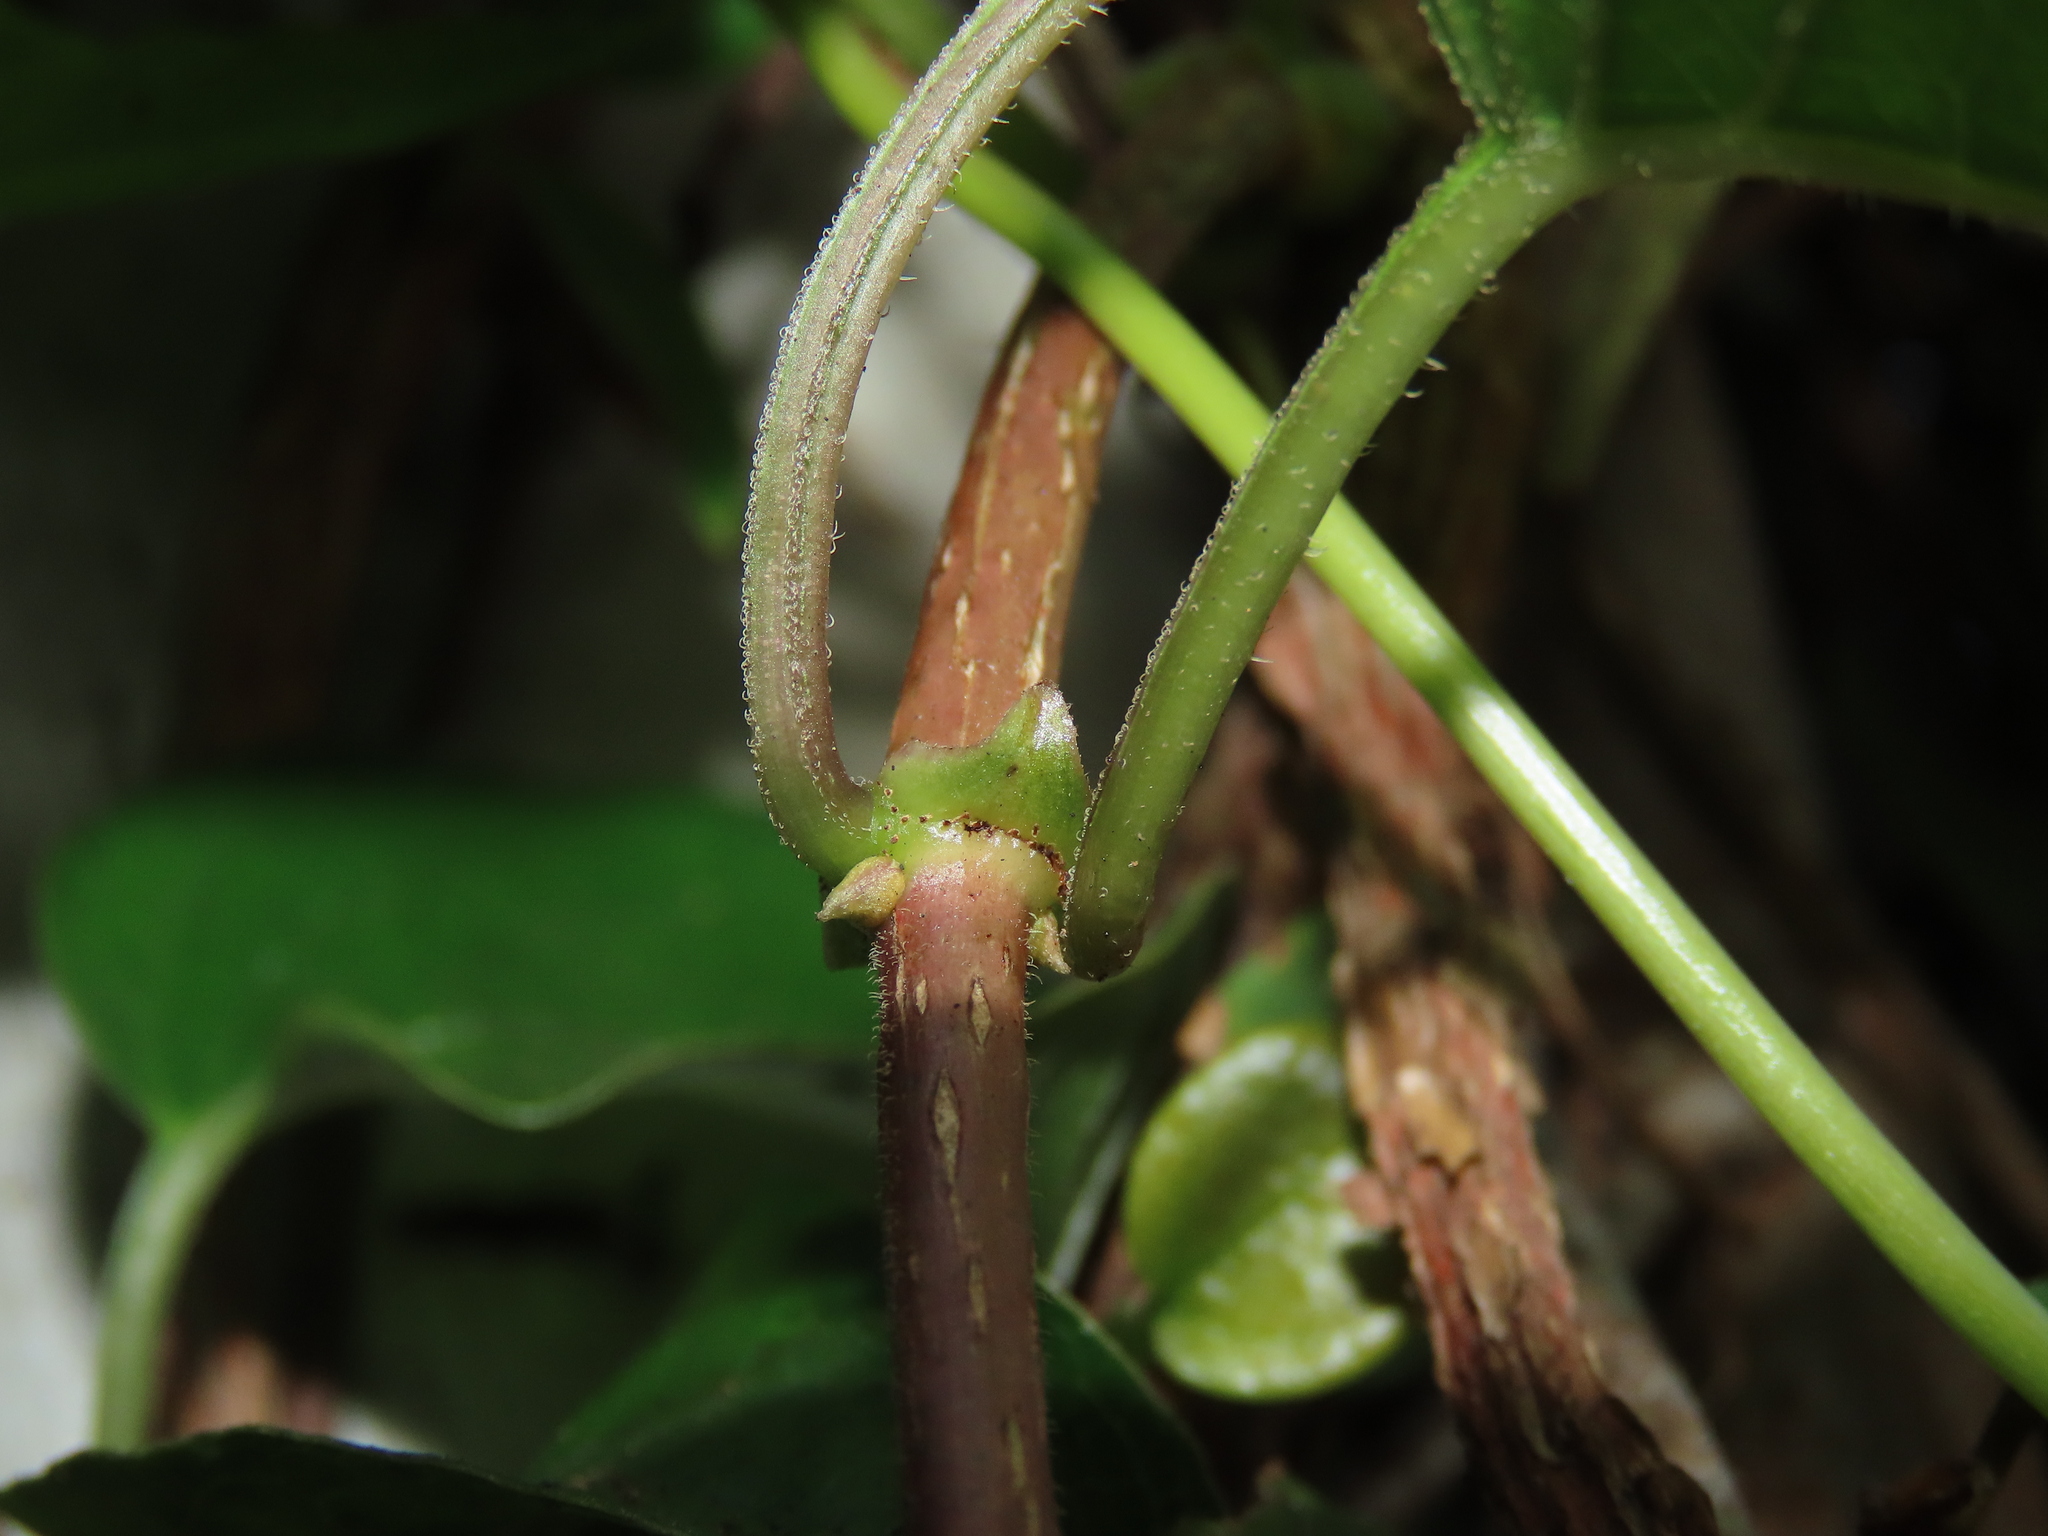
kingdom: Plantae
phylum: Tracheophyta
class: Magnoliopsida
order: Gentianales
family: Rubiaceae
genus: Paederia
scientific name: Paederia foetida
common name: Stinkvine
